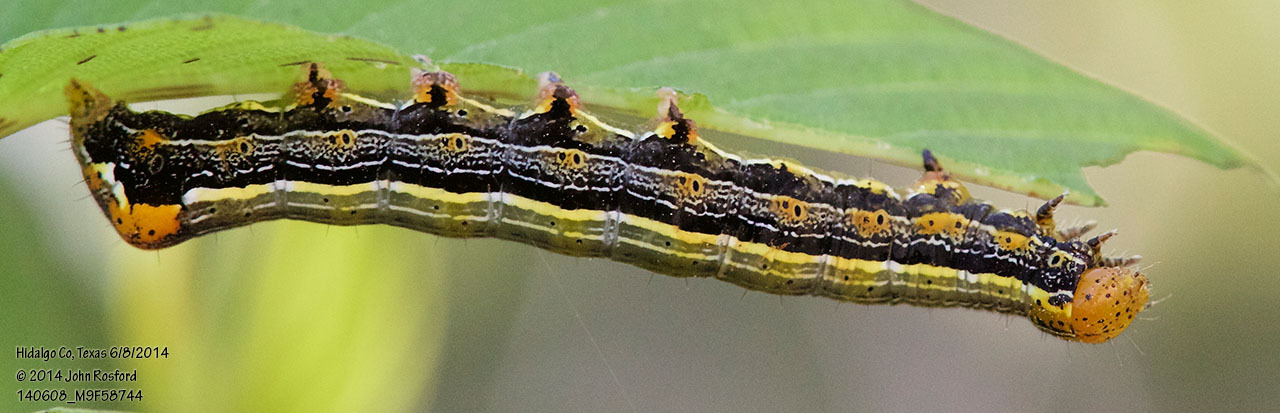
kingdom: Animalia
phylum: Arthropoda
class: Insecta
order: Lepidoptera
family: Noctuidae
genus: Magusa
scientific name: Magusa divaricata
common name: Orb narrow-winged moth
